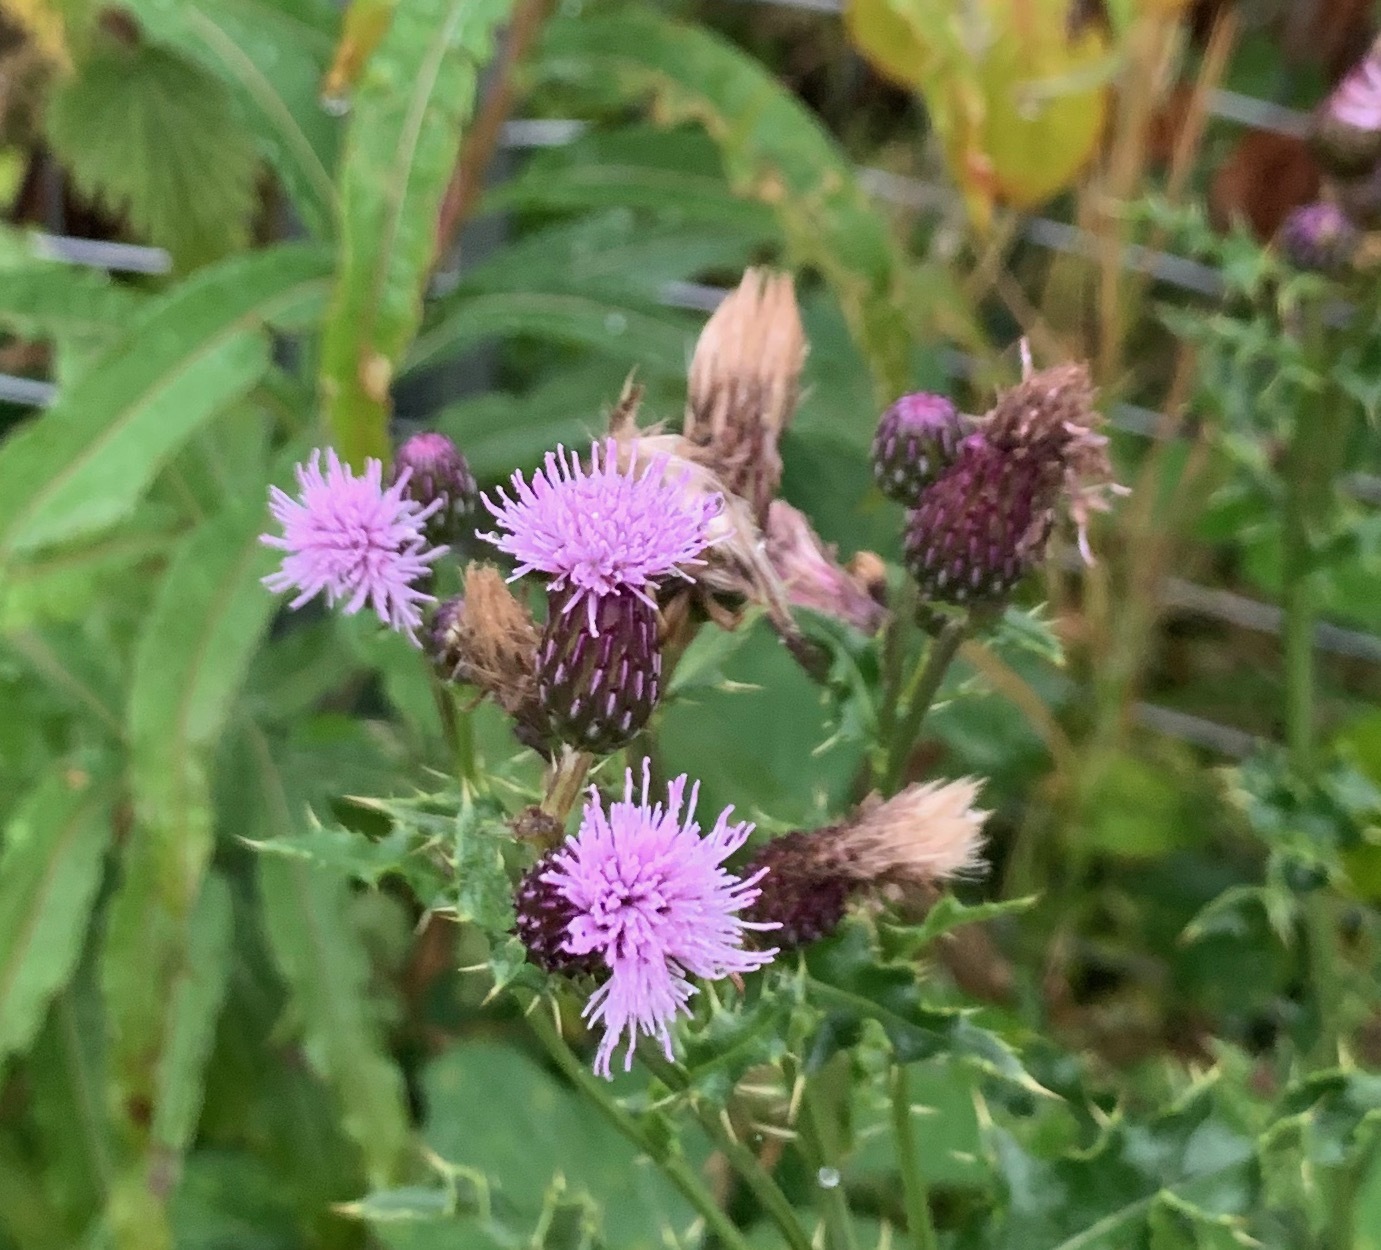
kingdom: Plantae
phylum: Tracheophyta
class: Magnoliopsida
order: Asterales
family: Asteraceae
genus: Cirsium
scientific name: Cirsium arvense
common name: Creeping thistle
